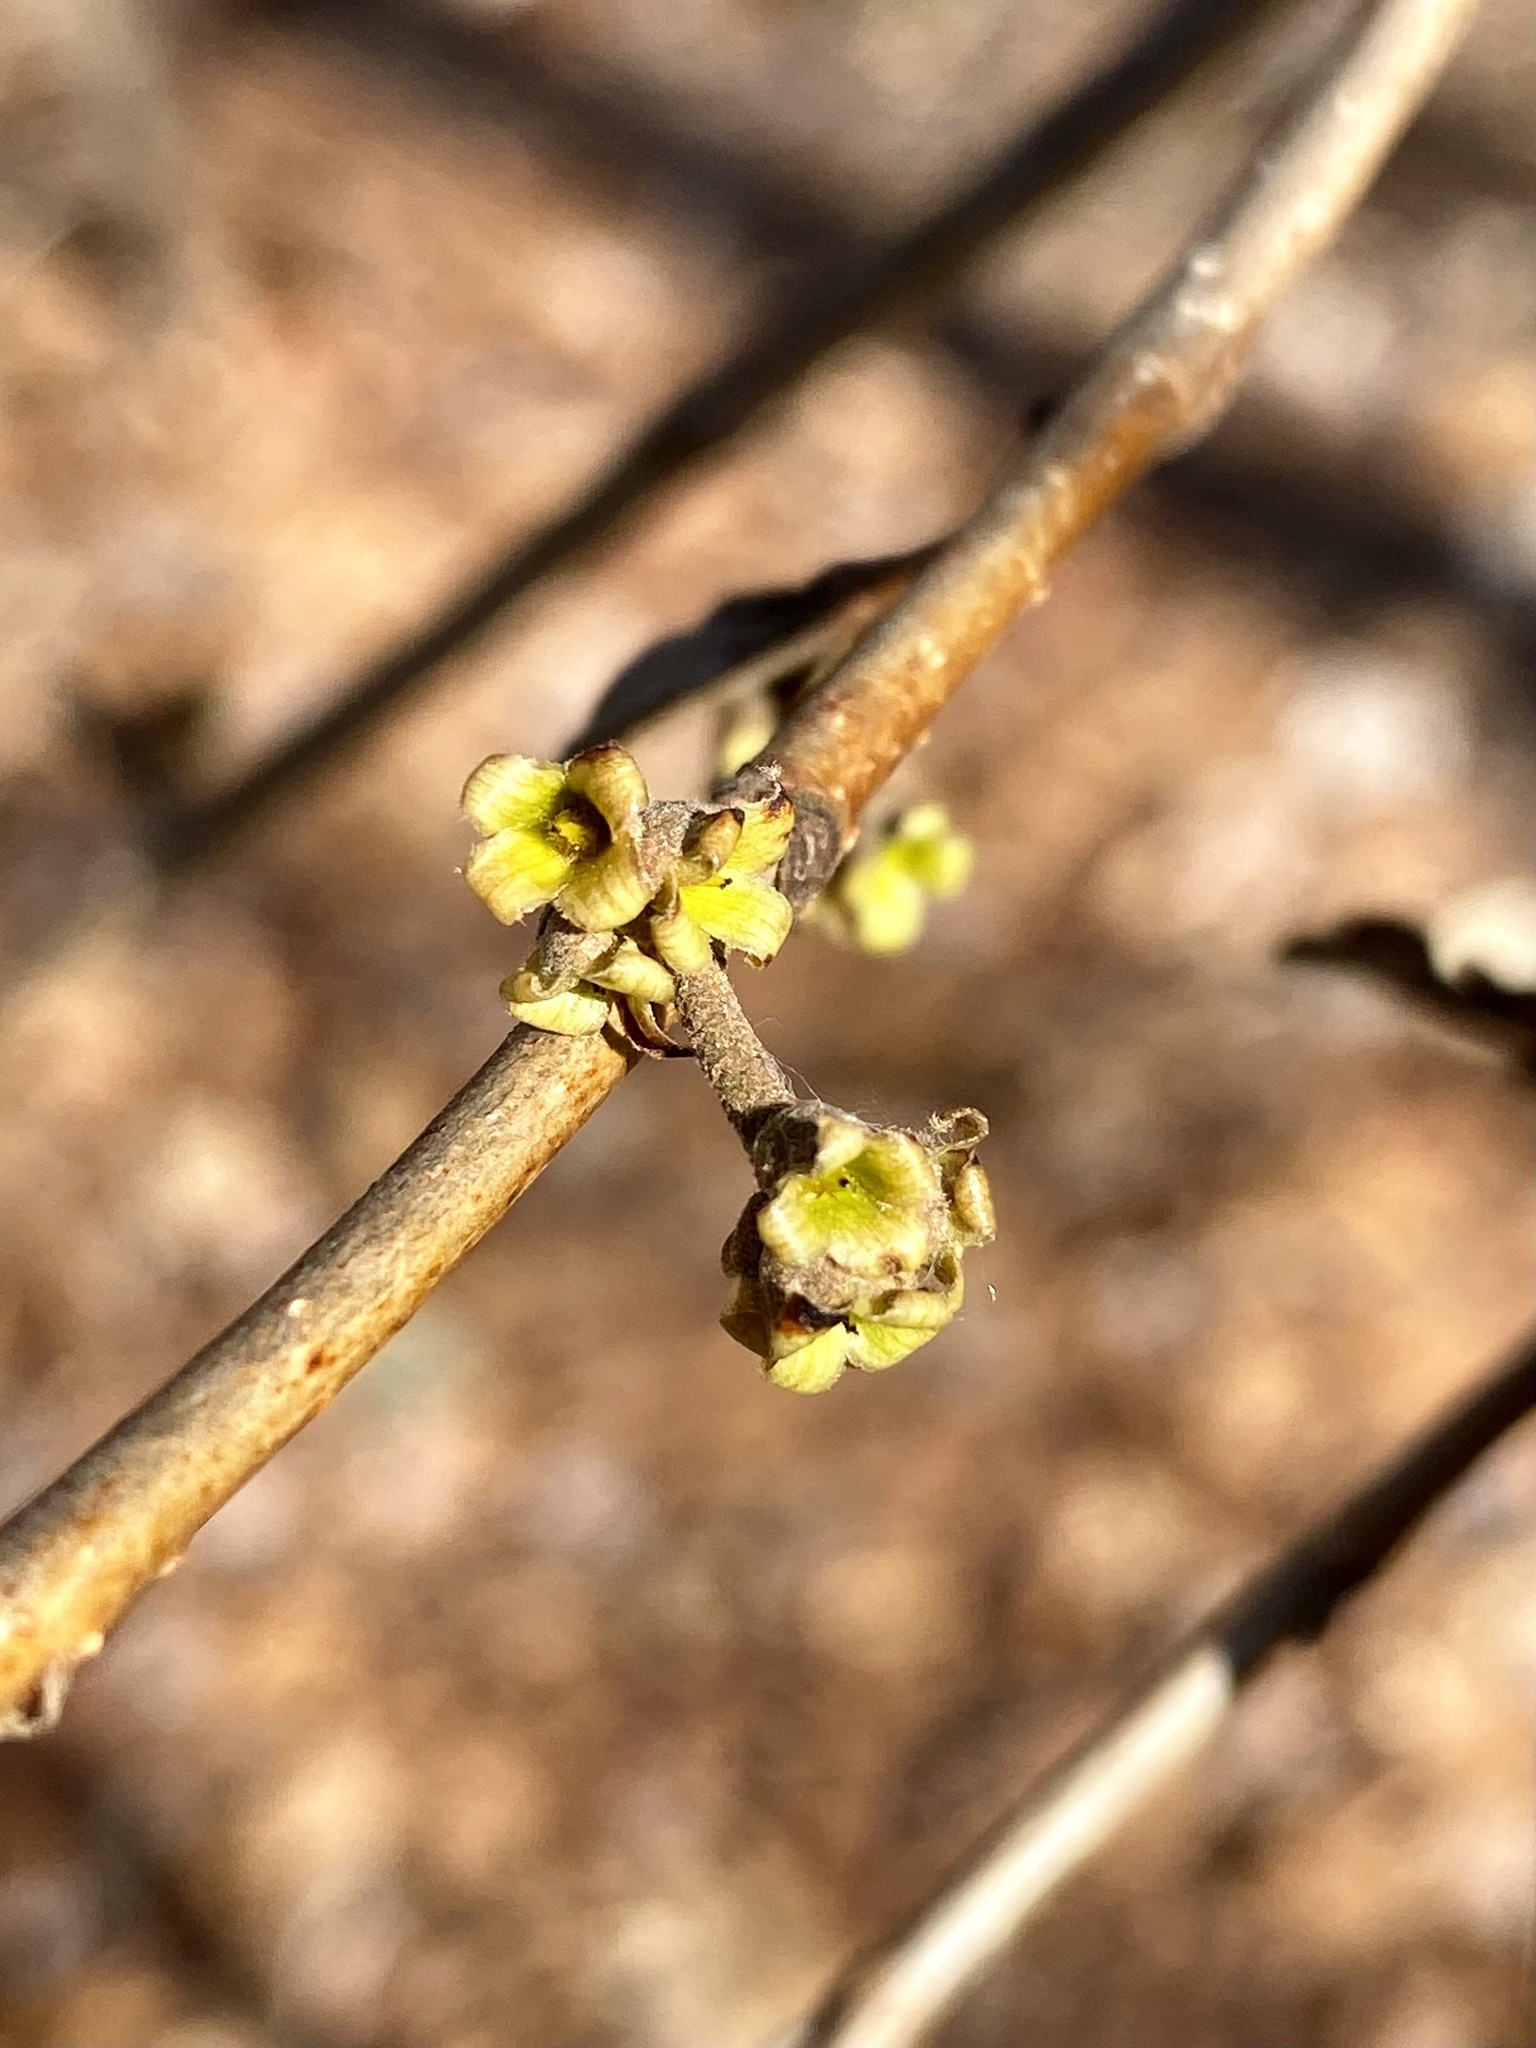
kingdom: Plantae
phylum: Tracheophyta
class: Magnoliopsida
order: Saxifragales
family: Hamamelidaceae
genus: Hamamelis
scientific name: Hamamelis virginiana
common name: Witch-hazel
